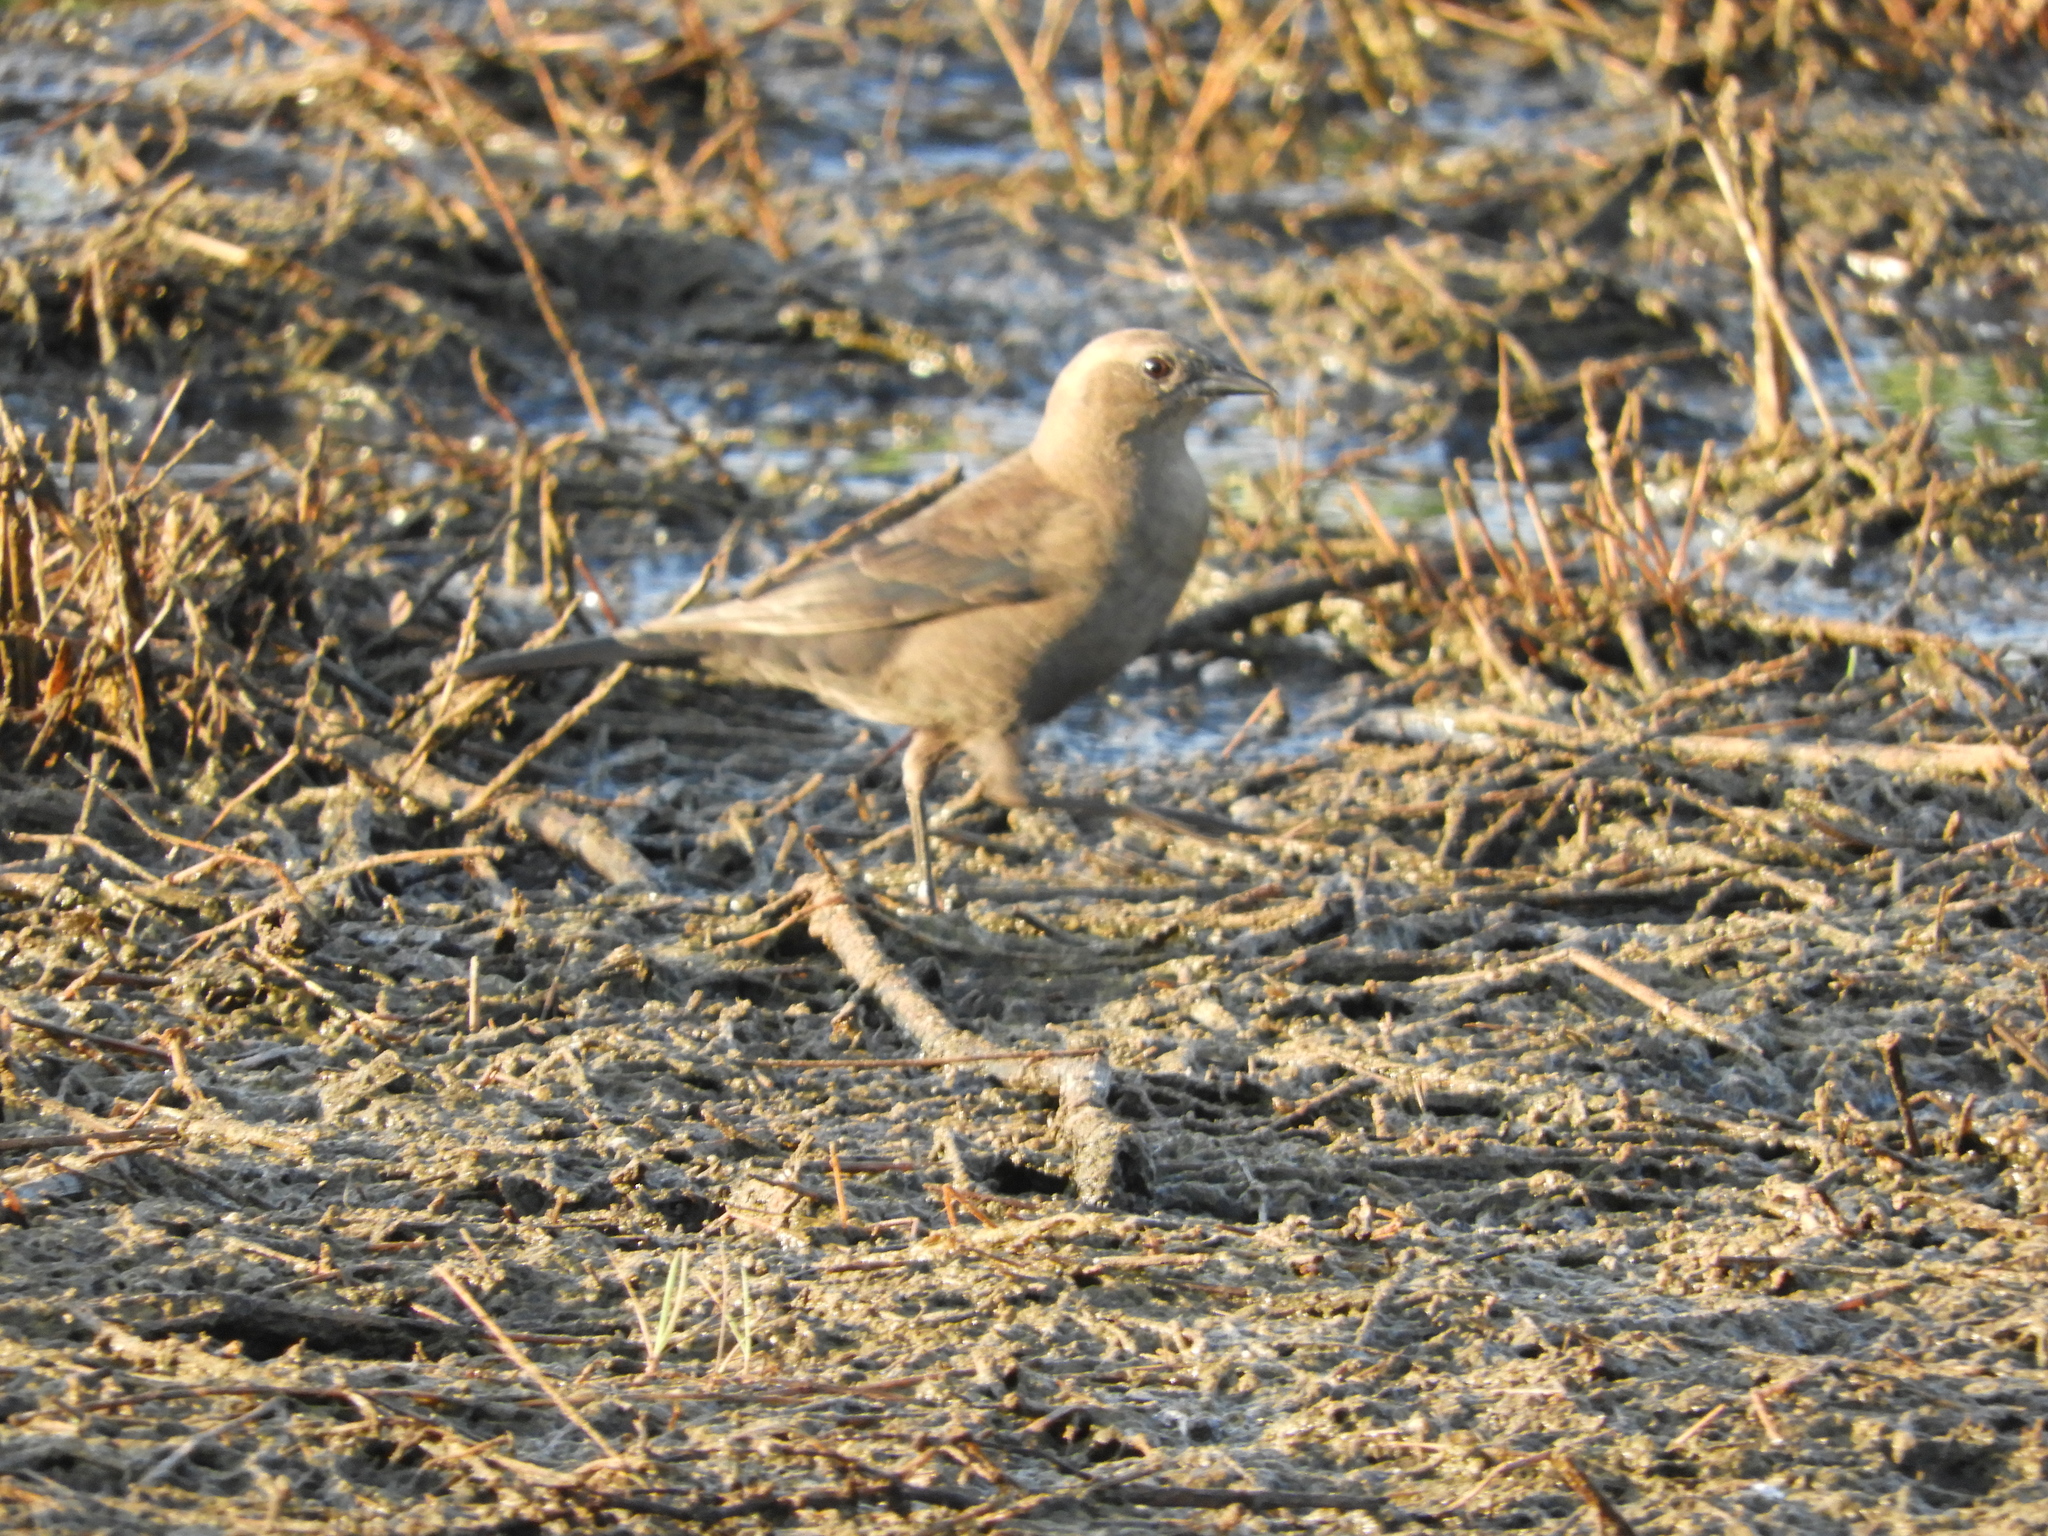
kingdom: Animalia
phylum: Chordata
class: Aves
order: Passeriformes
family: Icteridae
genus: Euphagus
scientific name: Euphagus cyanocephalus
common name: Brewer's blackbird
